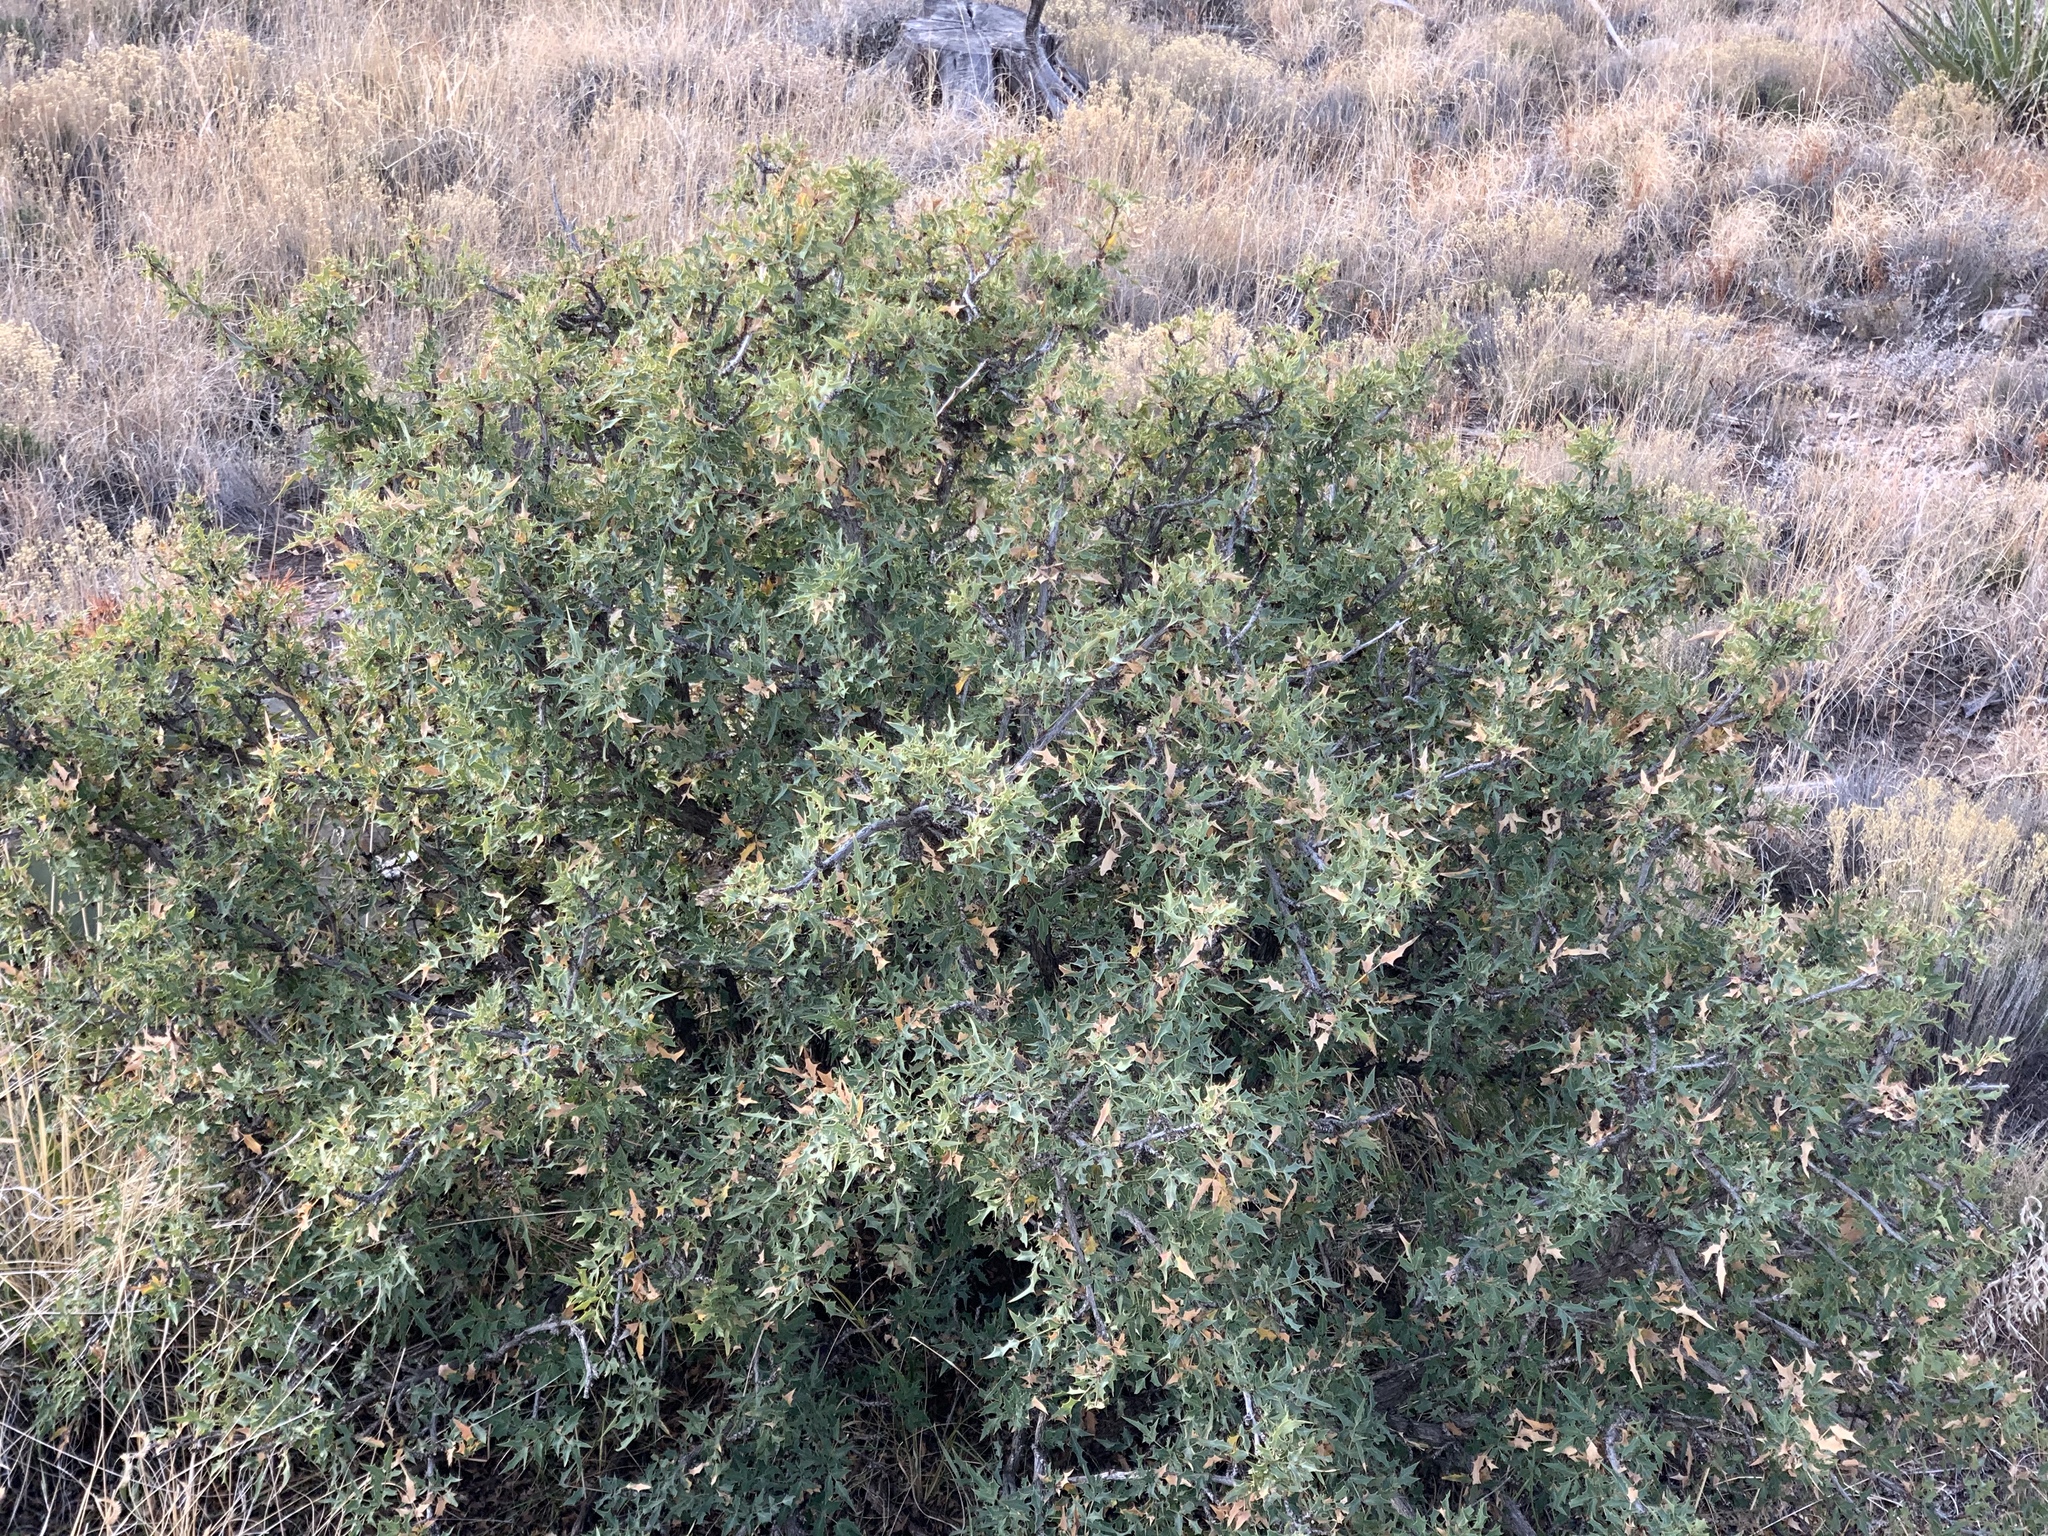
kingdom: Plantae
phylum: Tracheophyta
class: Magnoliopsida
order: Ranunculales
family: Berberidaceae
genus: Alloberberis
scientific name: Alloberberis haematocarpa
